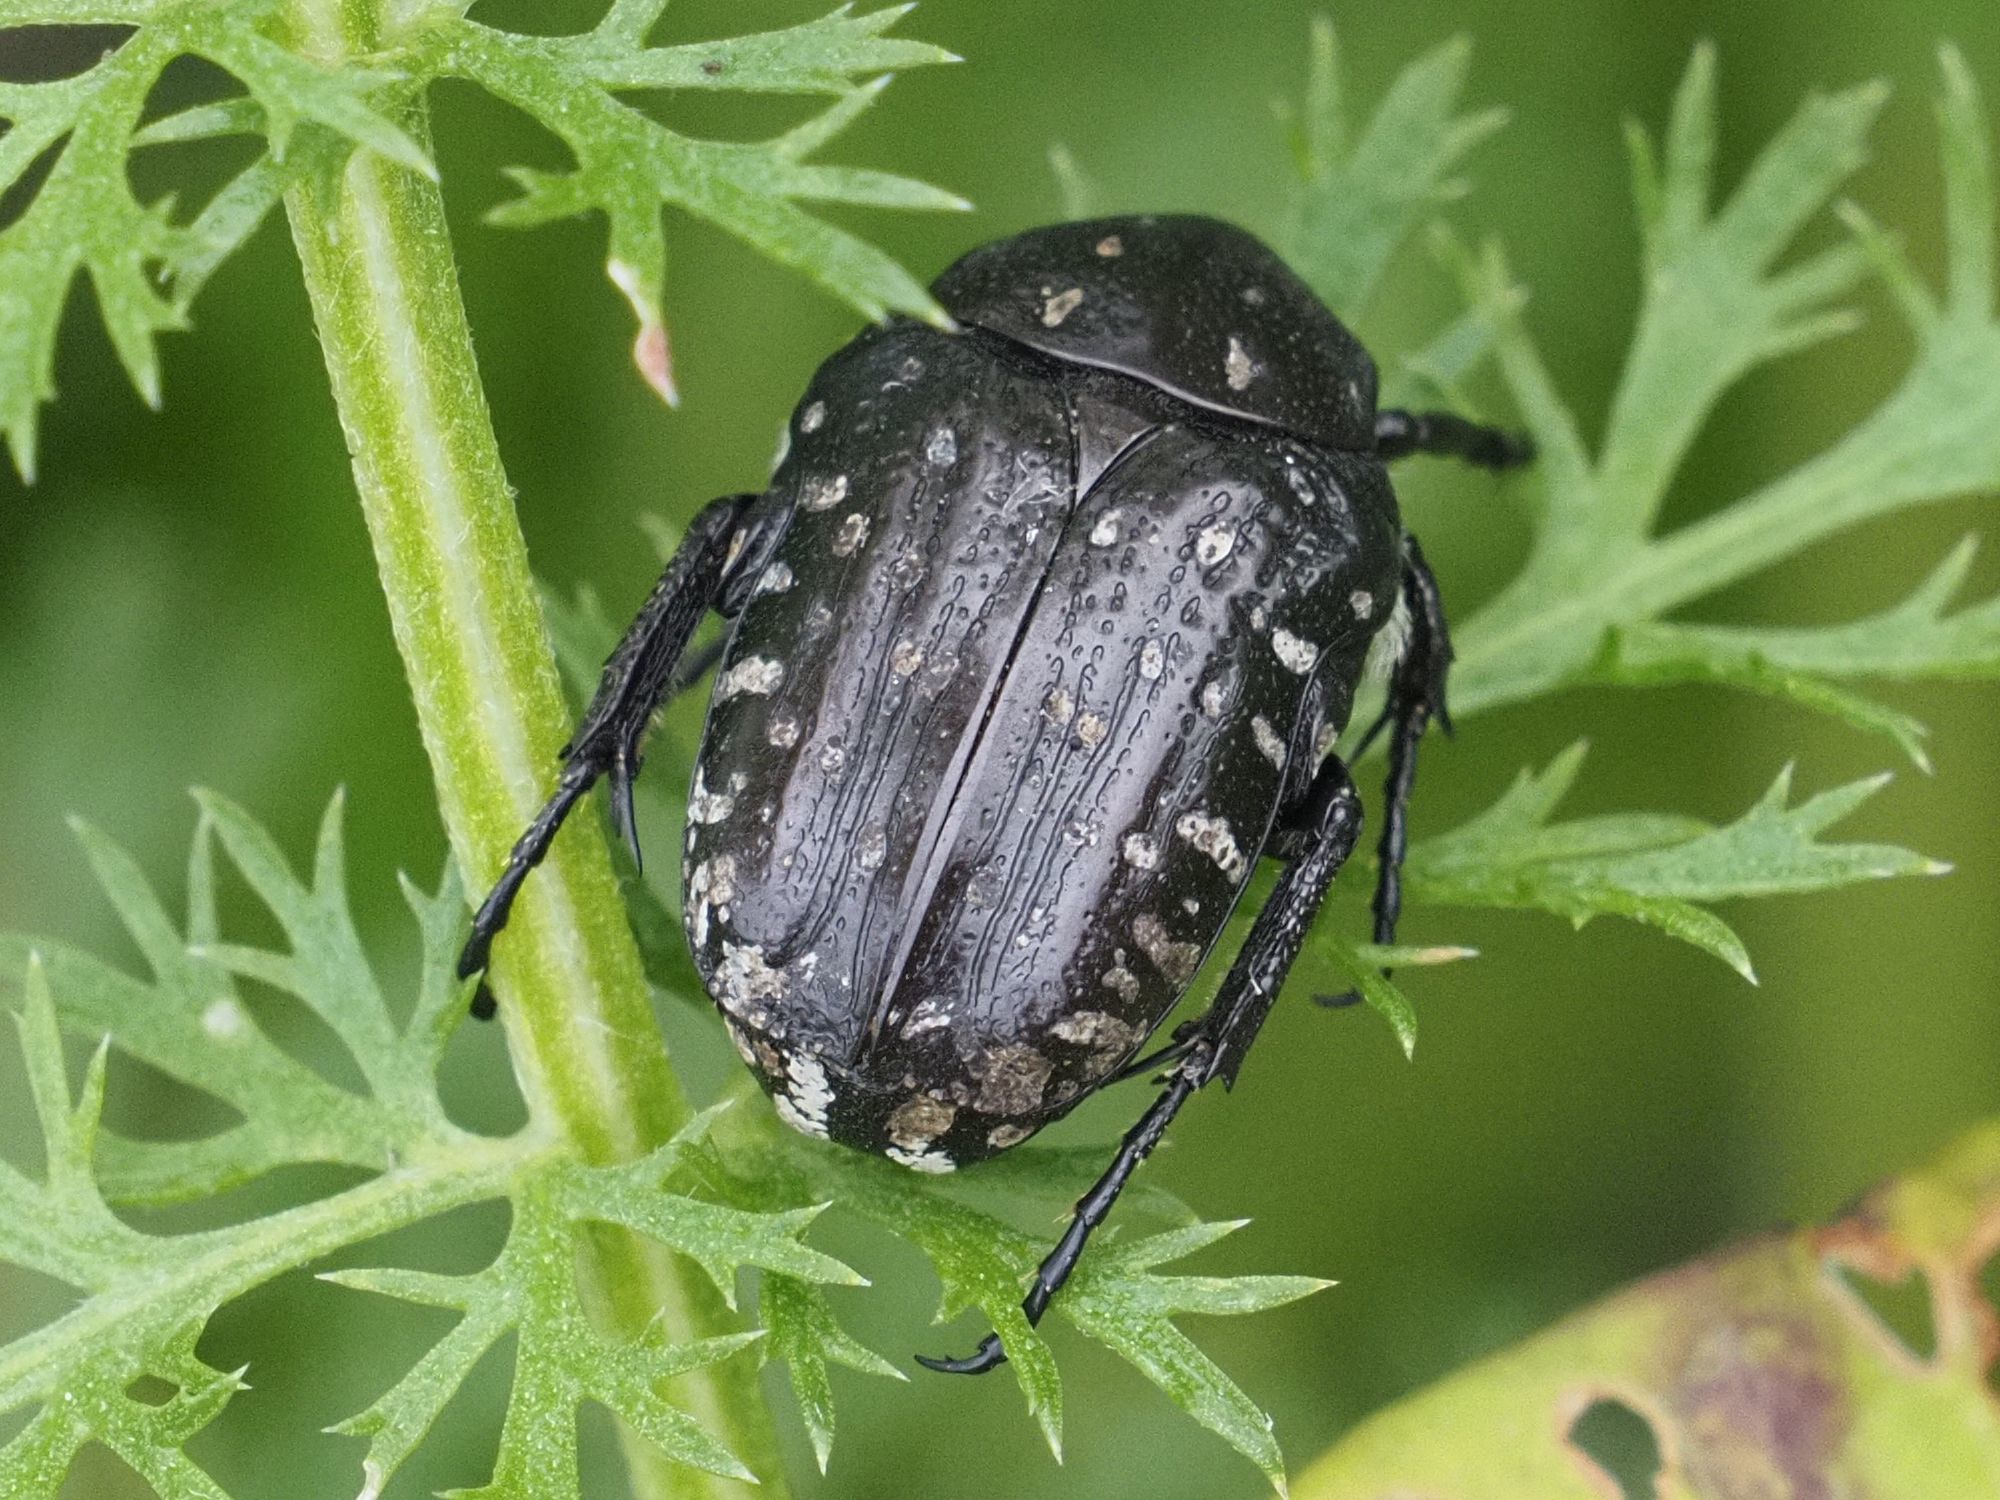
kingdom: Animalia
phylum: Arthropoda
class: Insecta
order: Coleoptera
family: Scarabaeidae
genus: Oxythyrea
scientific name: Oxythyrea funesta
